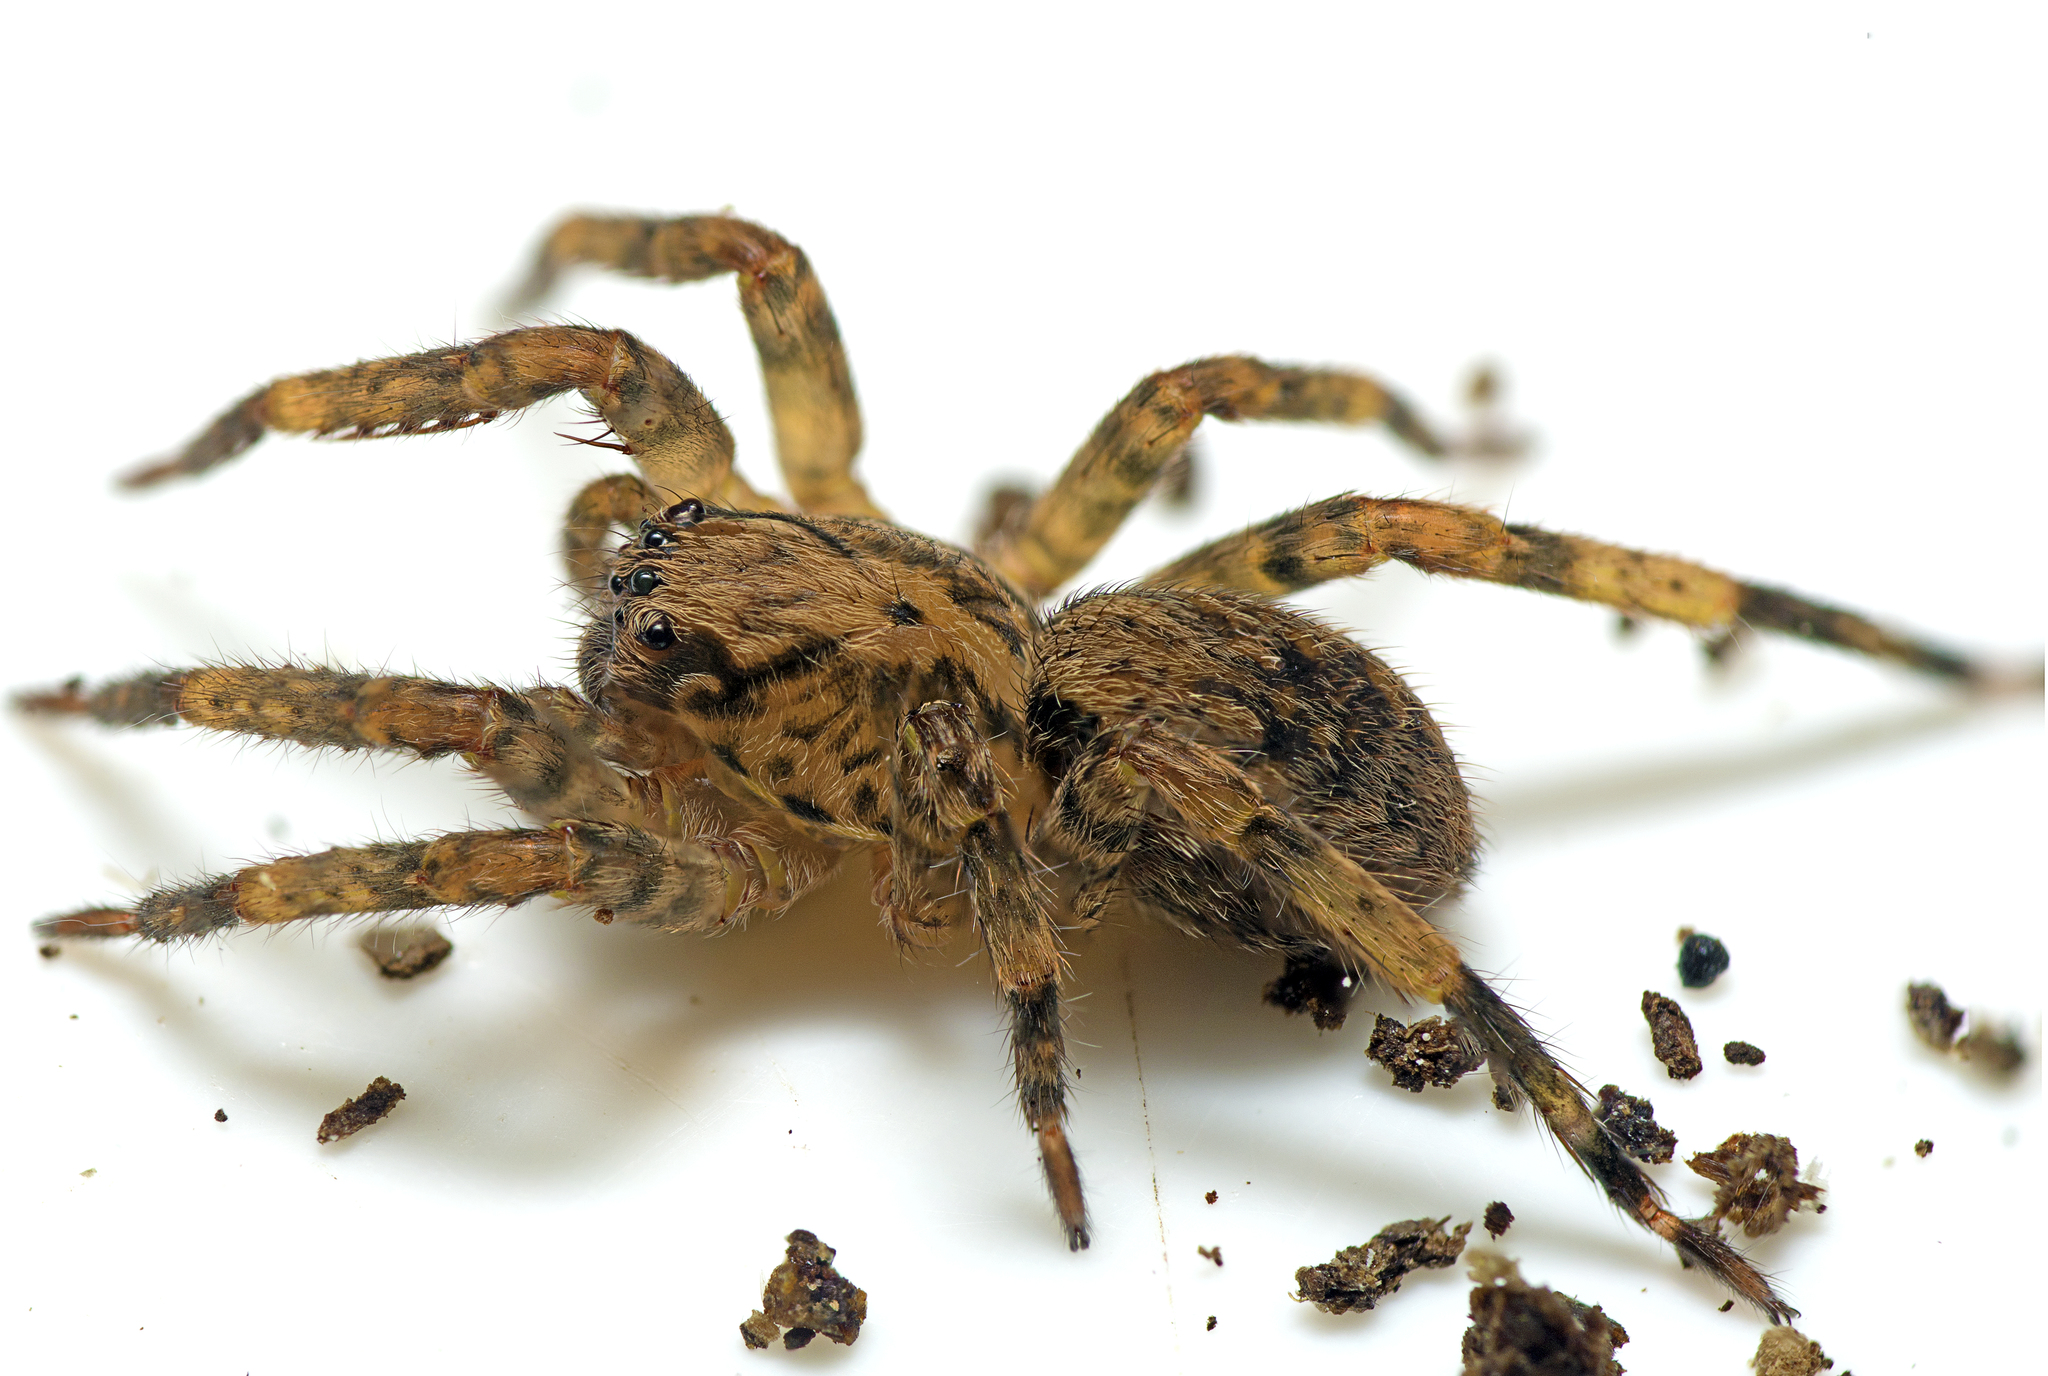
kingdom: Animalia
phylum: Arthropoda
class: Arachnida
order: Araneae
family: Zoropsidae
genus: Kilyana
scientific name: Kilyana hendersoni
